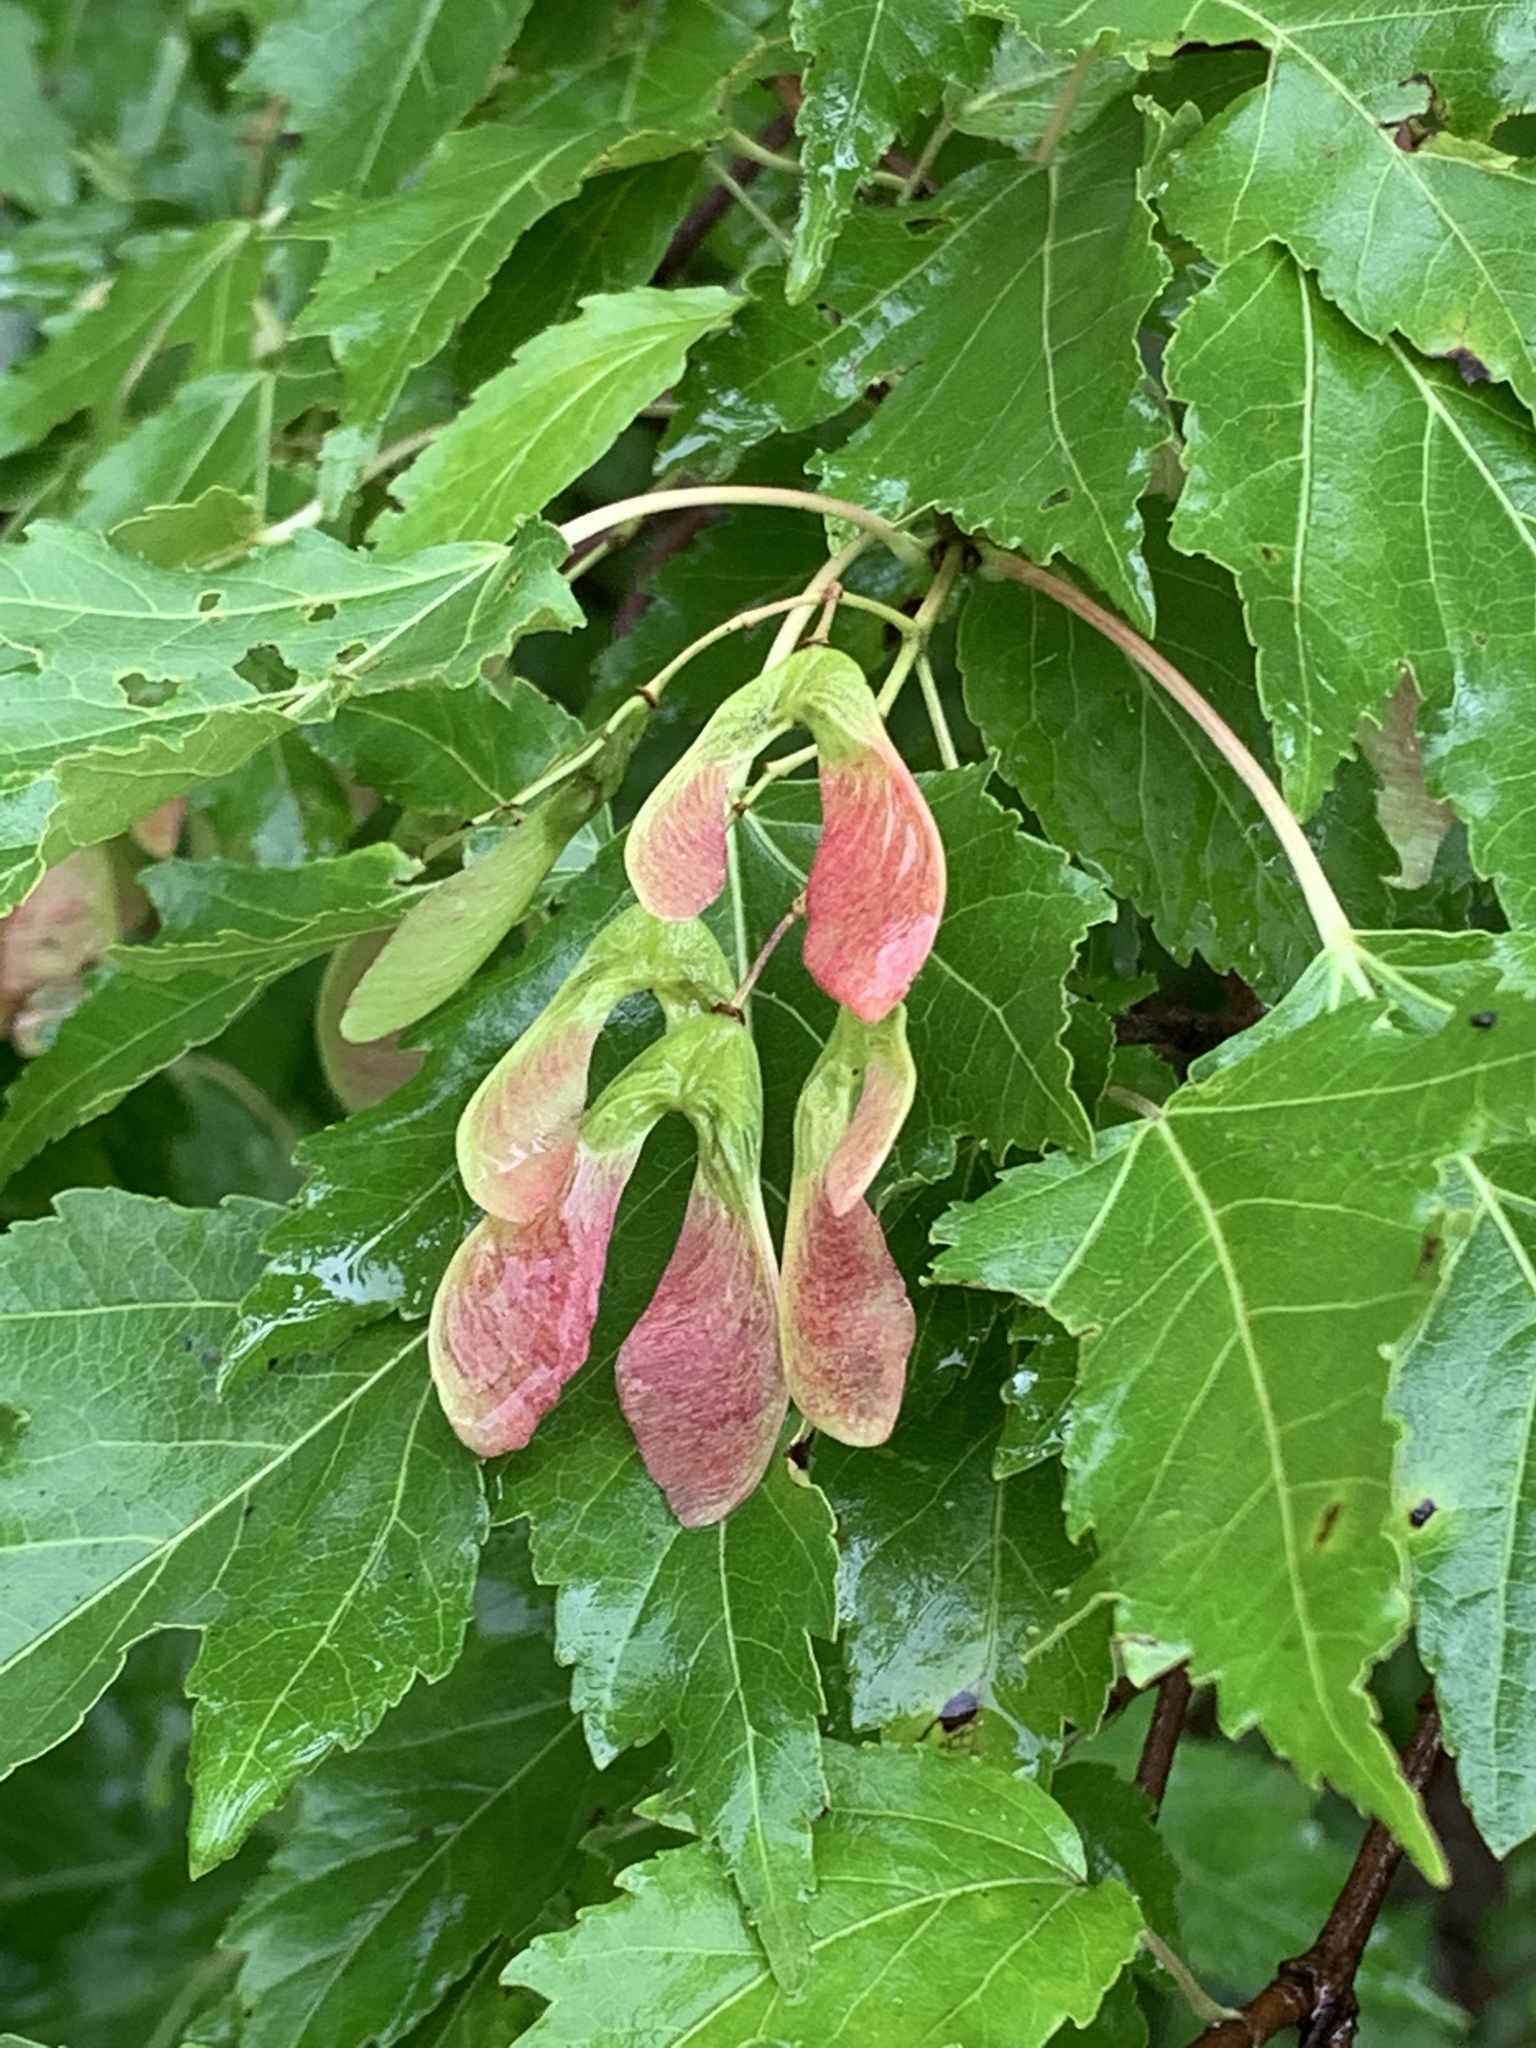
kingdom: Plantae
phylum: Tracheophyta
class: Magnoliopsida
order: Sapindales
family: Sapindaceae
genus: Acer
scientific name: Acer tataricum
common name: Tartar maple
